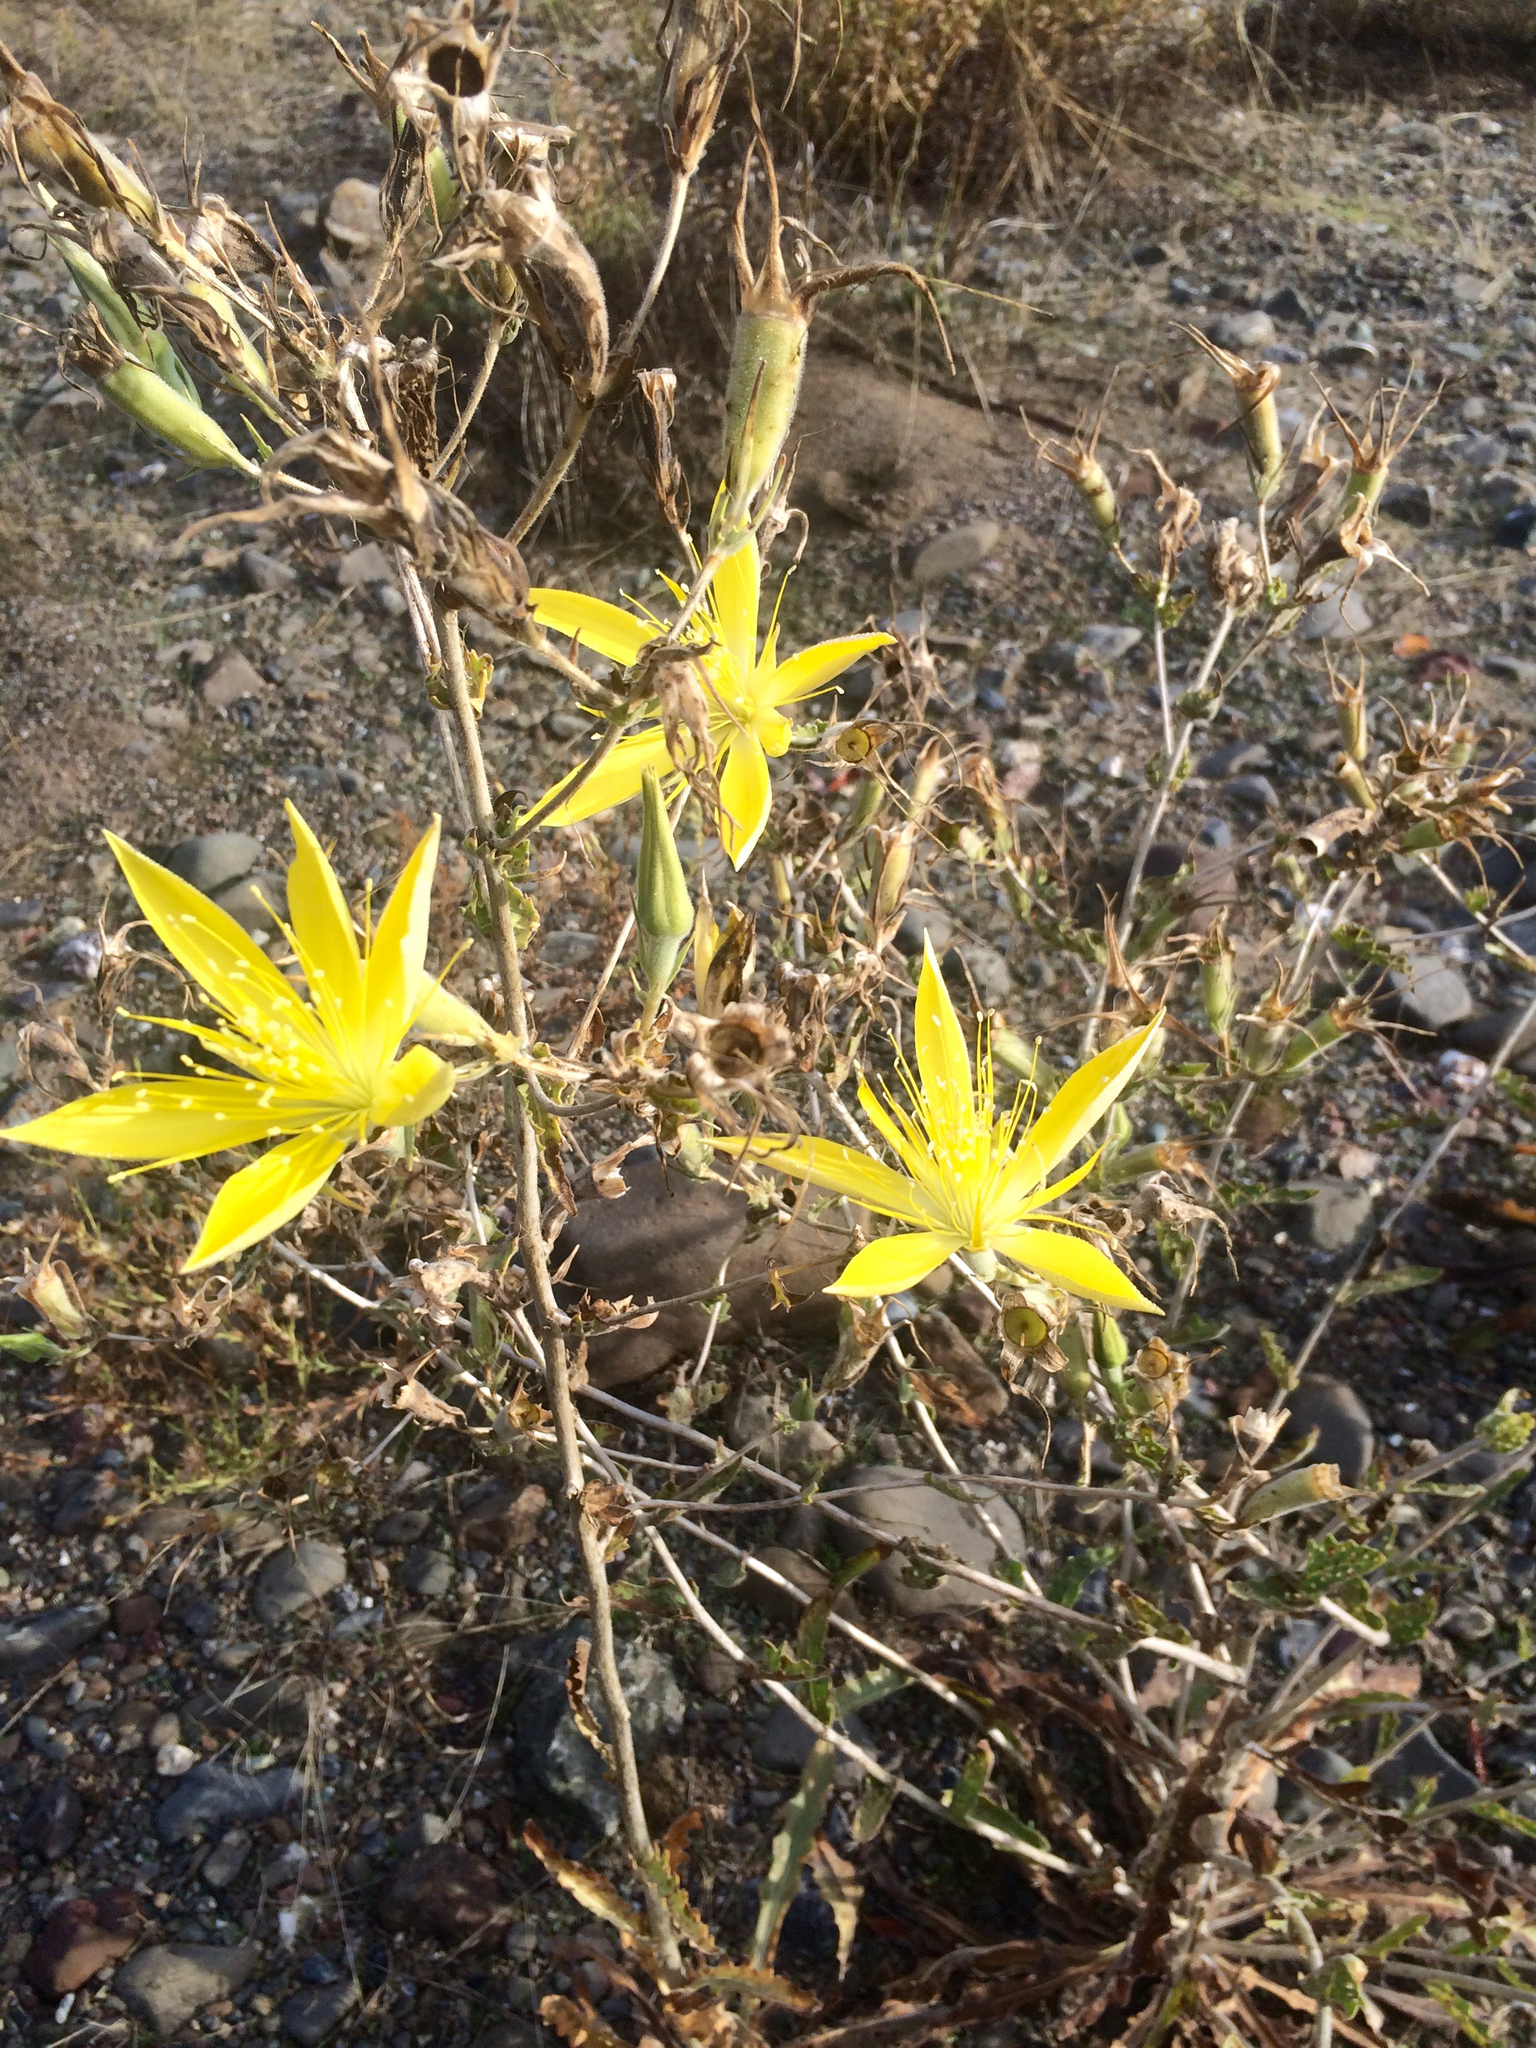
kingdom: Plantae
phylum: Tracheophyta
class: Magnoliopsida
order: Cornales
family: Loasaceae
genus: Mentzelia
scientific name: Mentzelia laevicaulis
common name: Smooth-stem blazingstar
